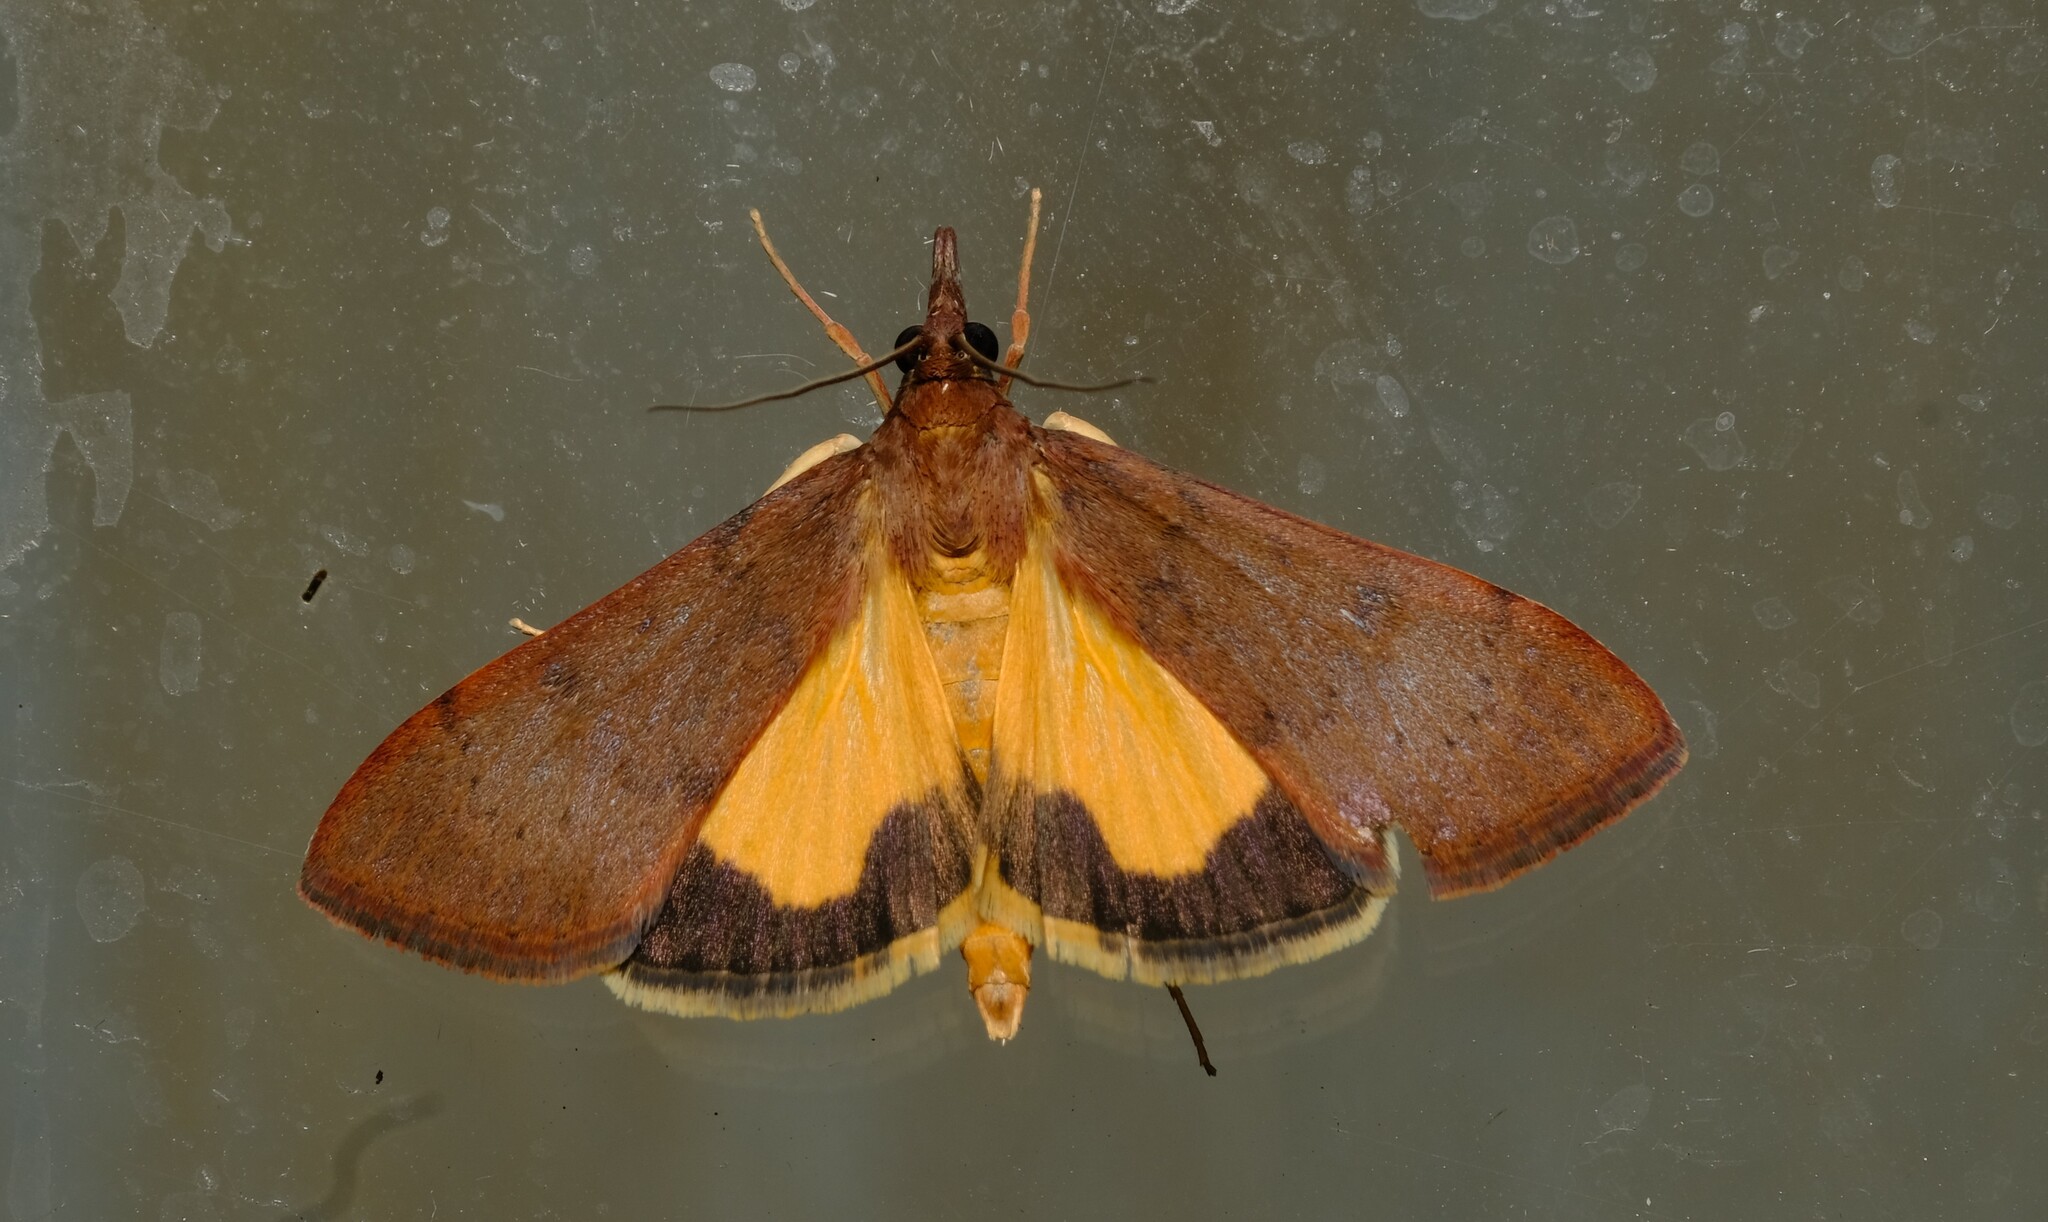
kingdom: Animalia
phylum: Arthropoda
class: Insecta
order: Lepidoptera
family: Crambidae
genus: Uresiphita
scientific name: Uresiphita ornithopteralis
